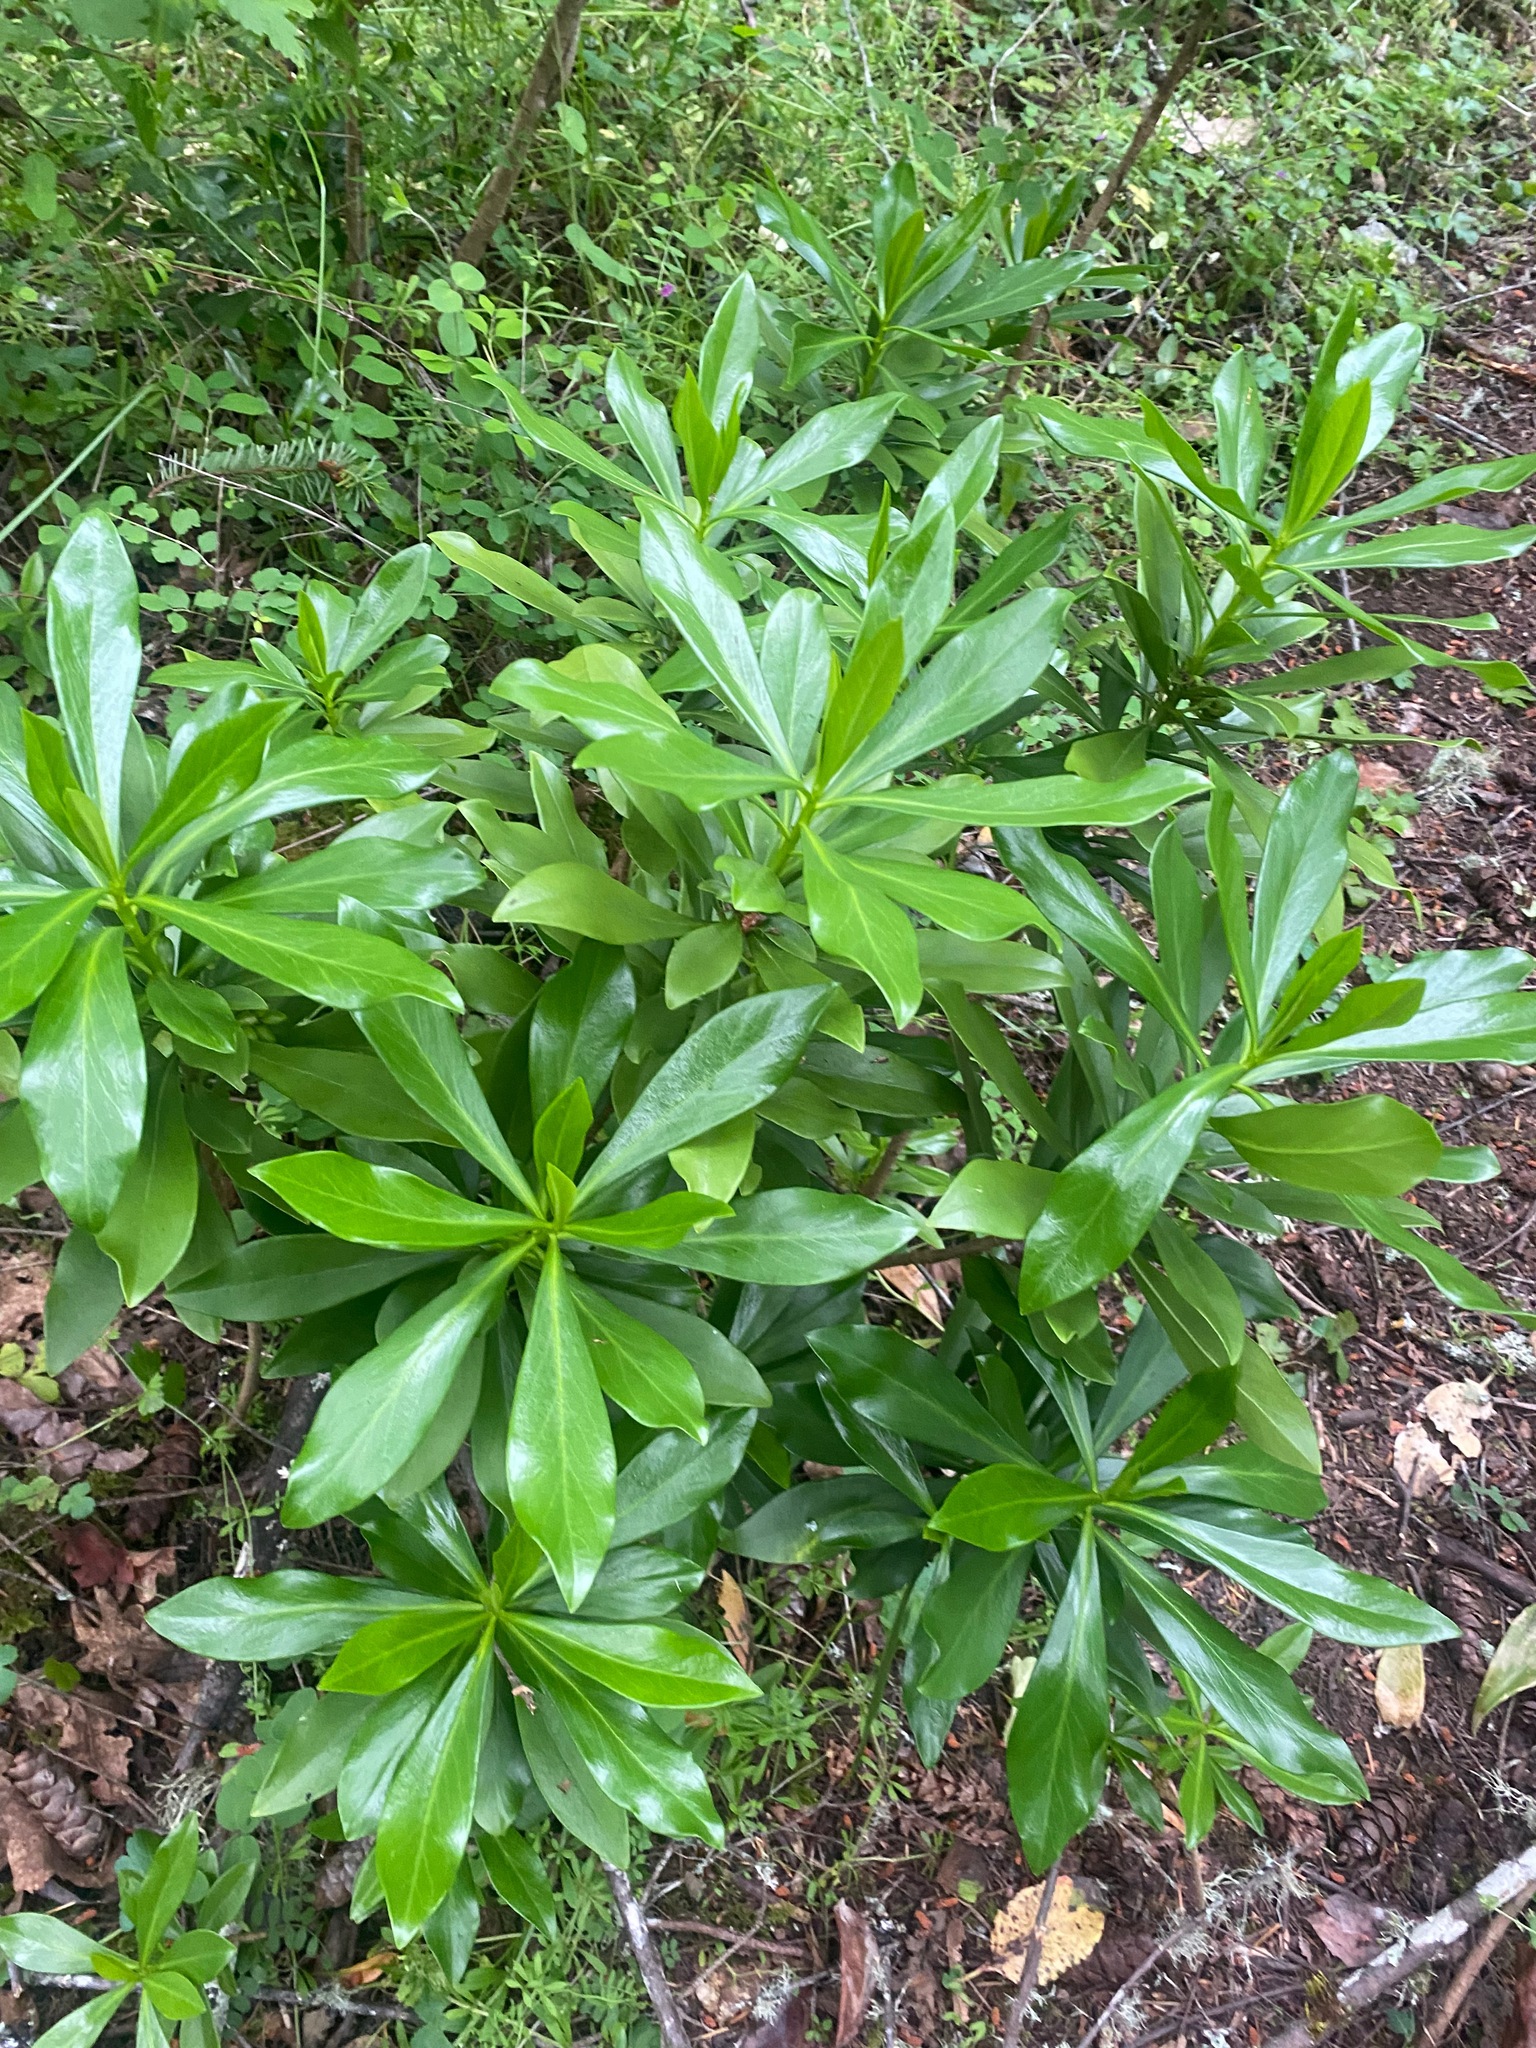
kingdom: Plantae
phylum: Tracheophyta
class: Magnoliopsida
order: Malvales
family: Thymelaeaceae
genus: Daphne
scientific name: Daphne laureola
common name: Spurge-laurel
